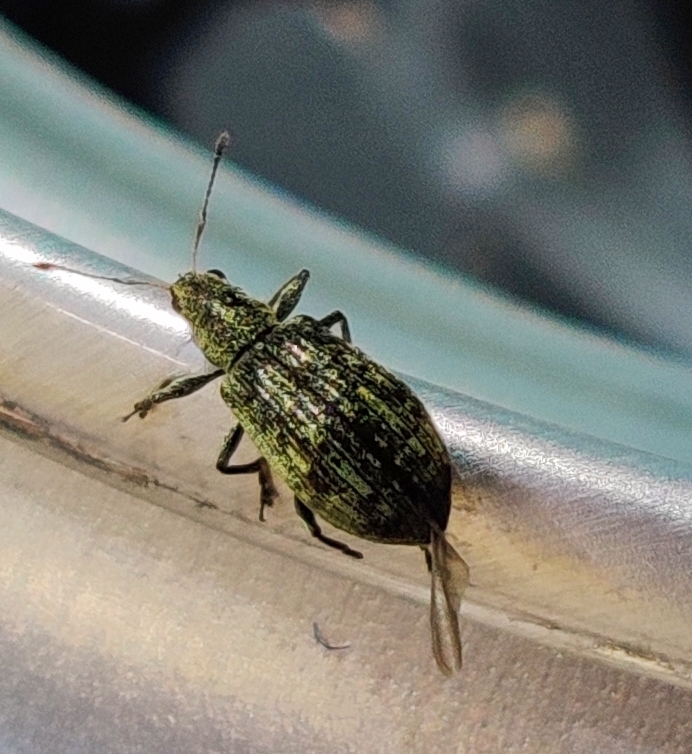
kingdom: Animalia
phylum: Arthropoda
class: Insecta
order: Coleoptera
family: Curculionidae
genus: Polydrusus
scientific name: Polydrusus cervinus
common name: Weevil
